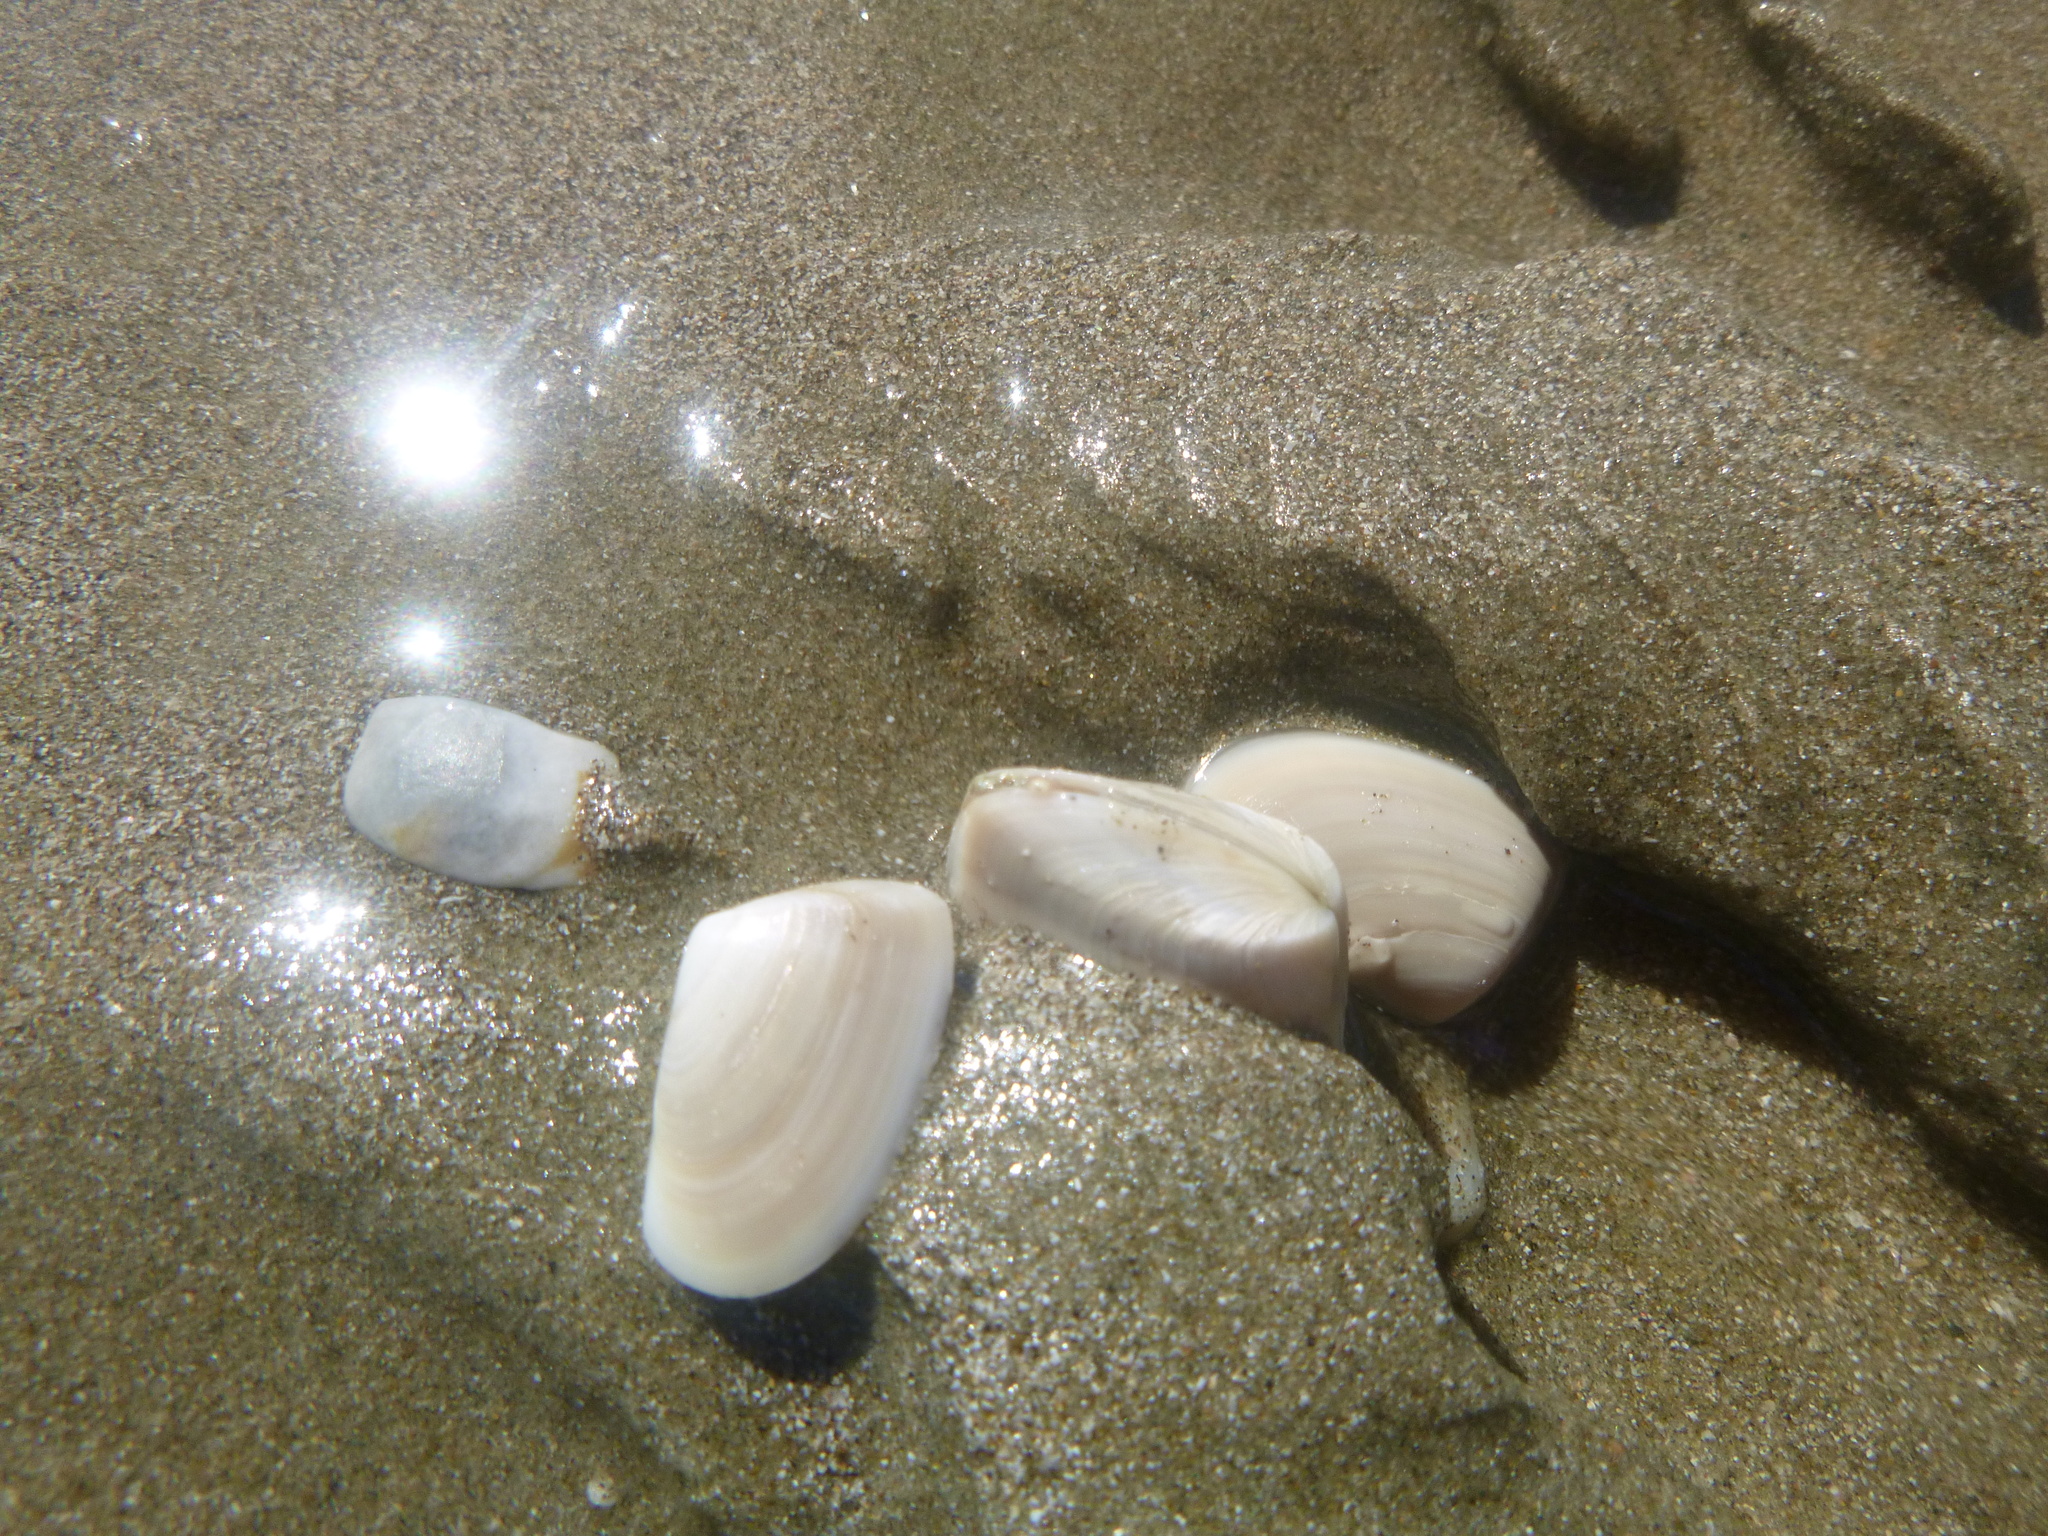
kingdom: Animalia
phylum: Mollusca
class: Bivalvia
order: Venerida
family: Mesodesmatidae
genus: Paphies
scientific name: Paphies subtriangulata
